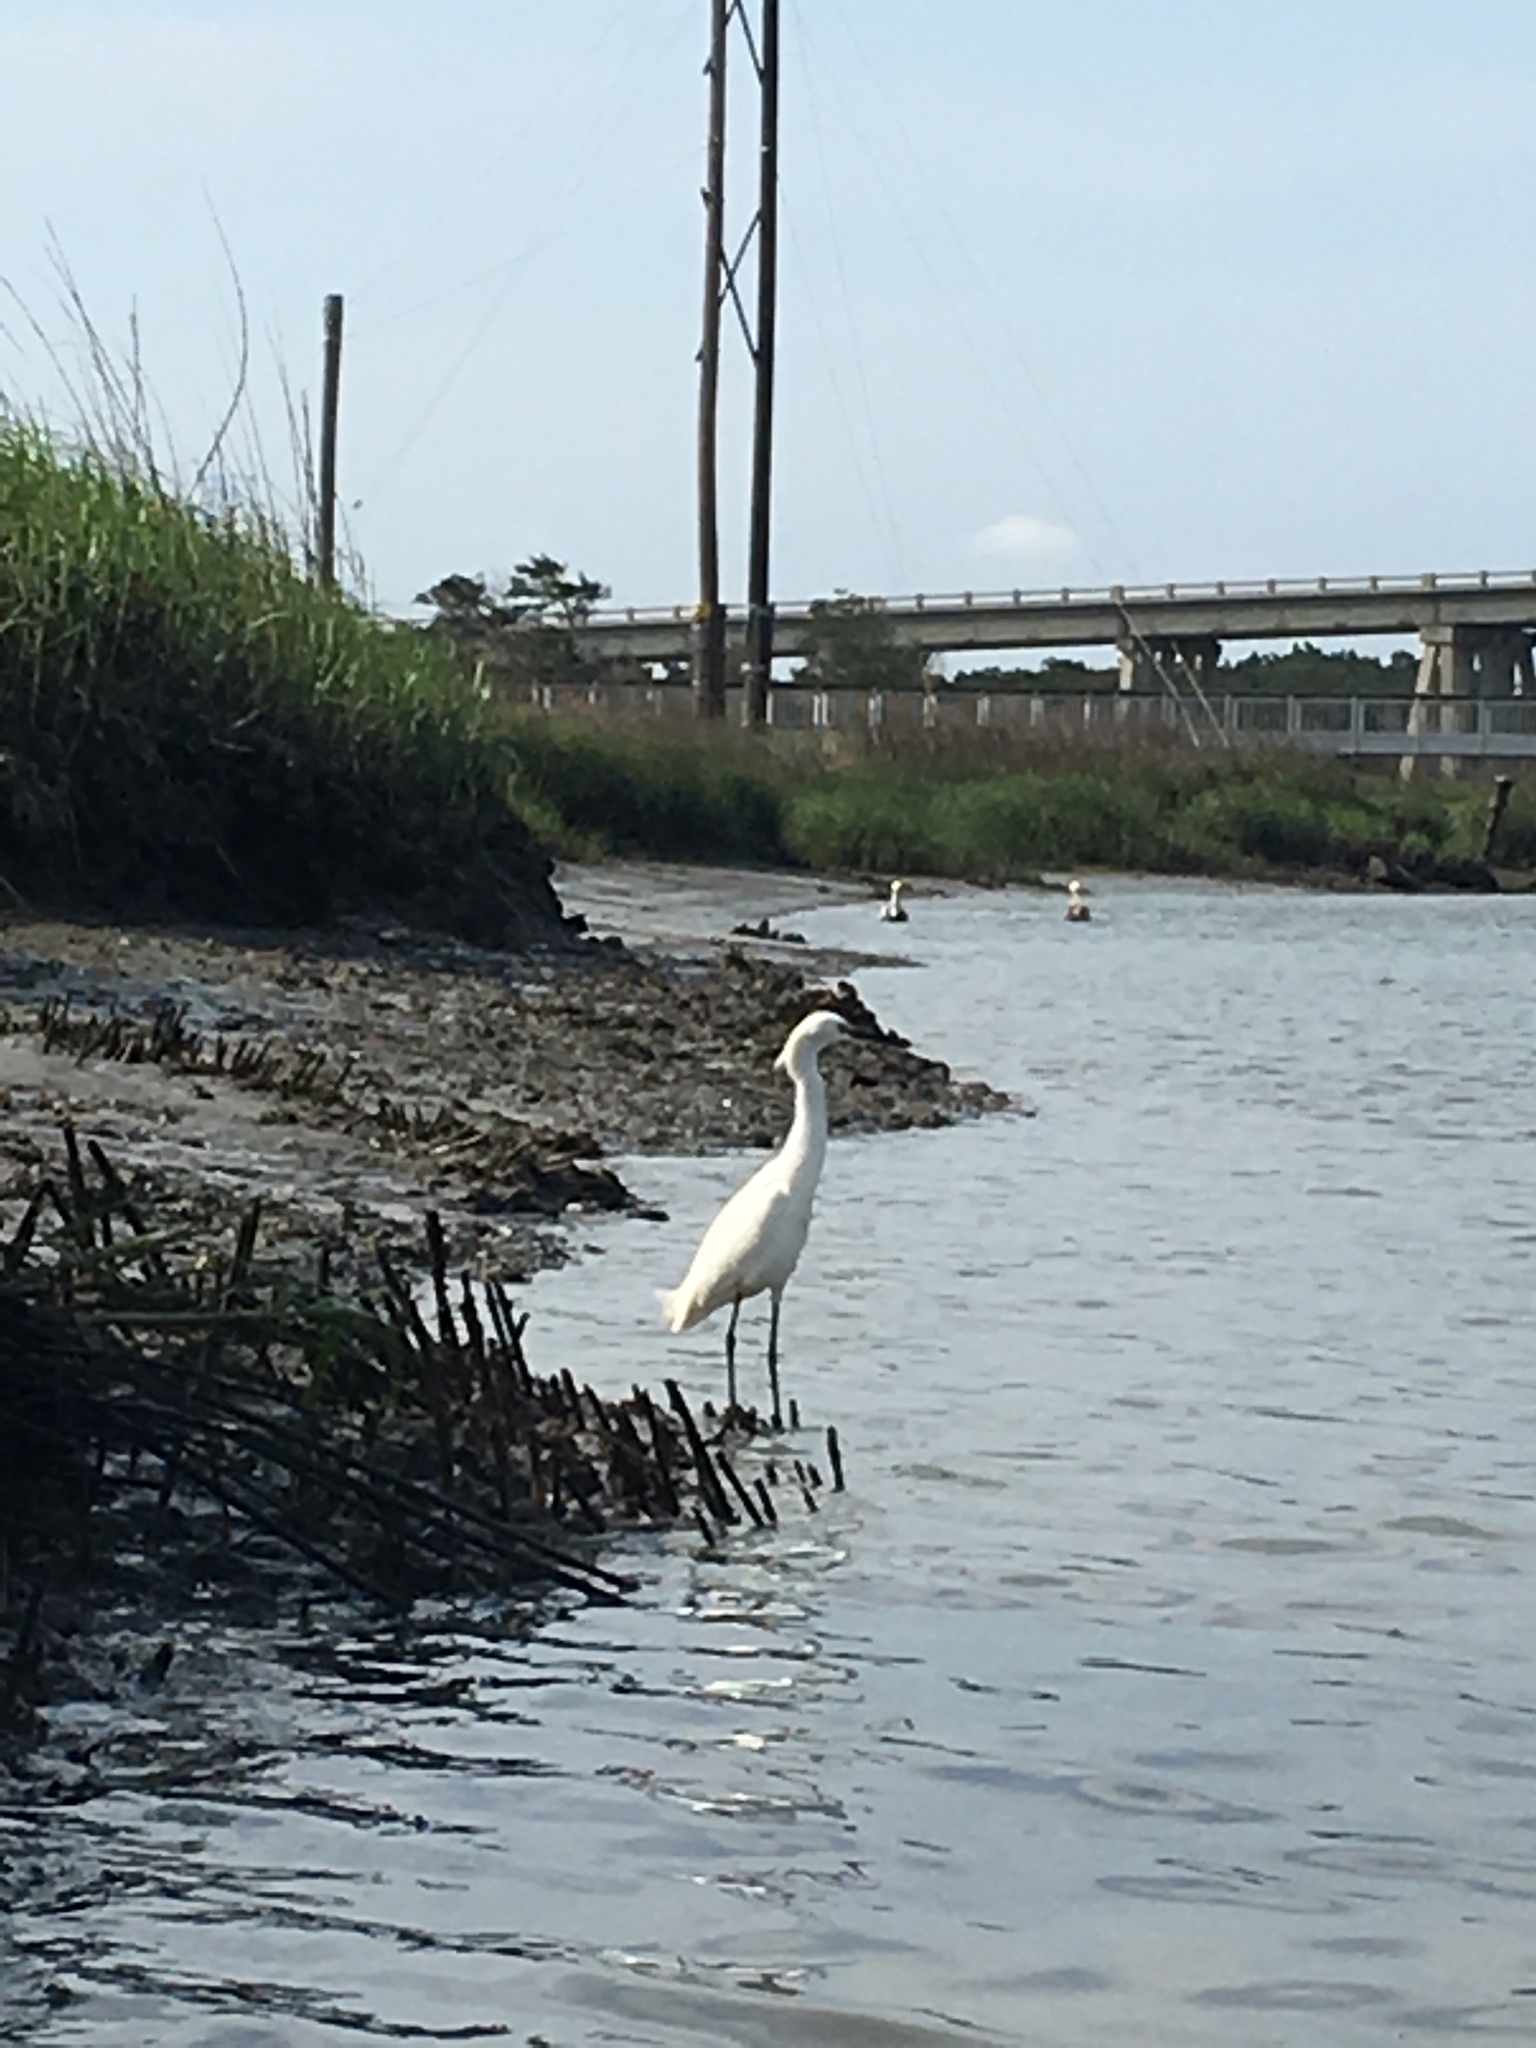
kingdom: Animalia
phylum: Chordata
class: Aves
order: Pelecaniformes
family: Ardeidae
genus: Egretta
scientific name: Egretta thula
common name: Snowy egret
